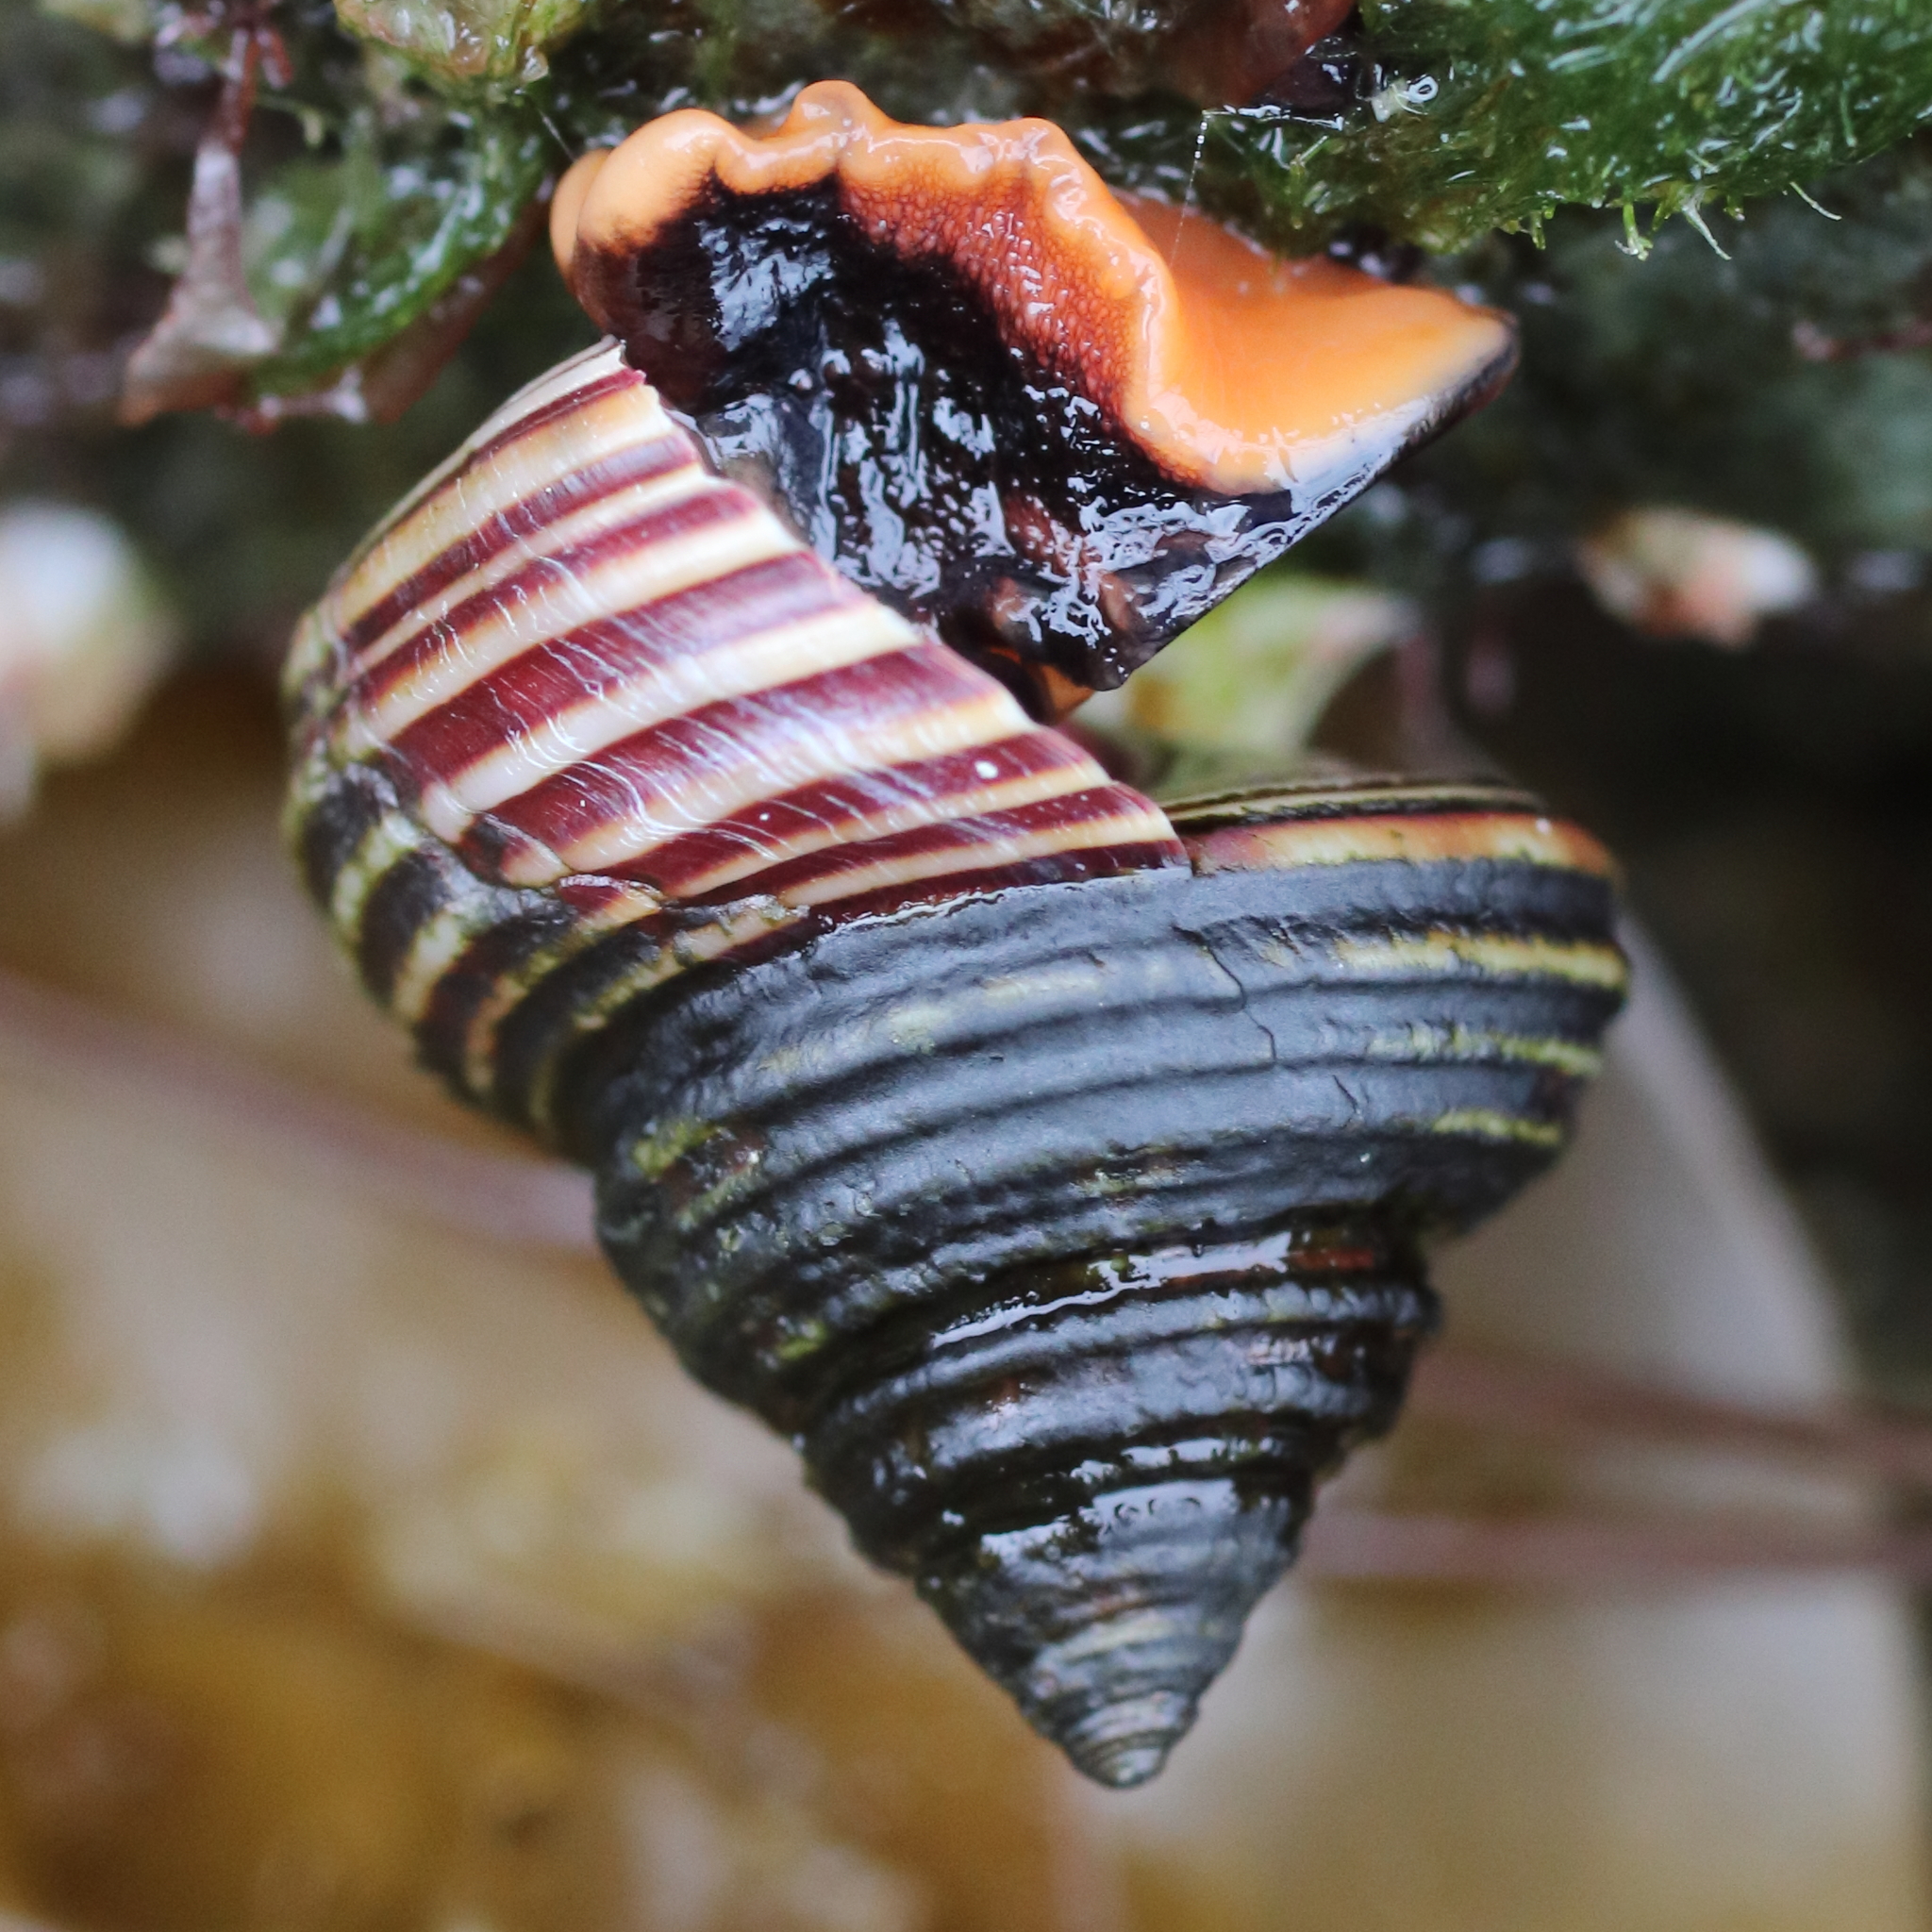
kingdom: Animalia
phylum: Mollusca
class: Gastropoda
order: Trochida
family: Calliostomatidae
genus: Calliostoma
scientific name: Calliostoma ligatum
